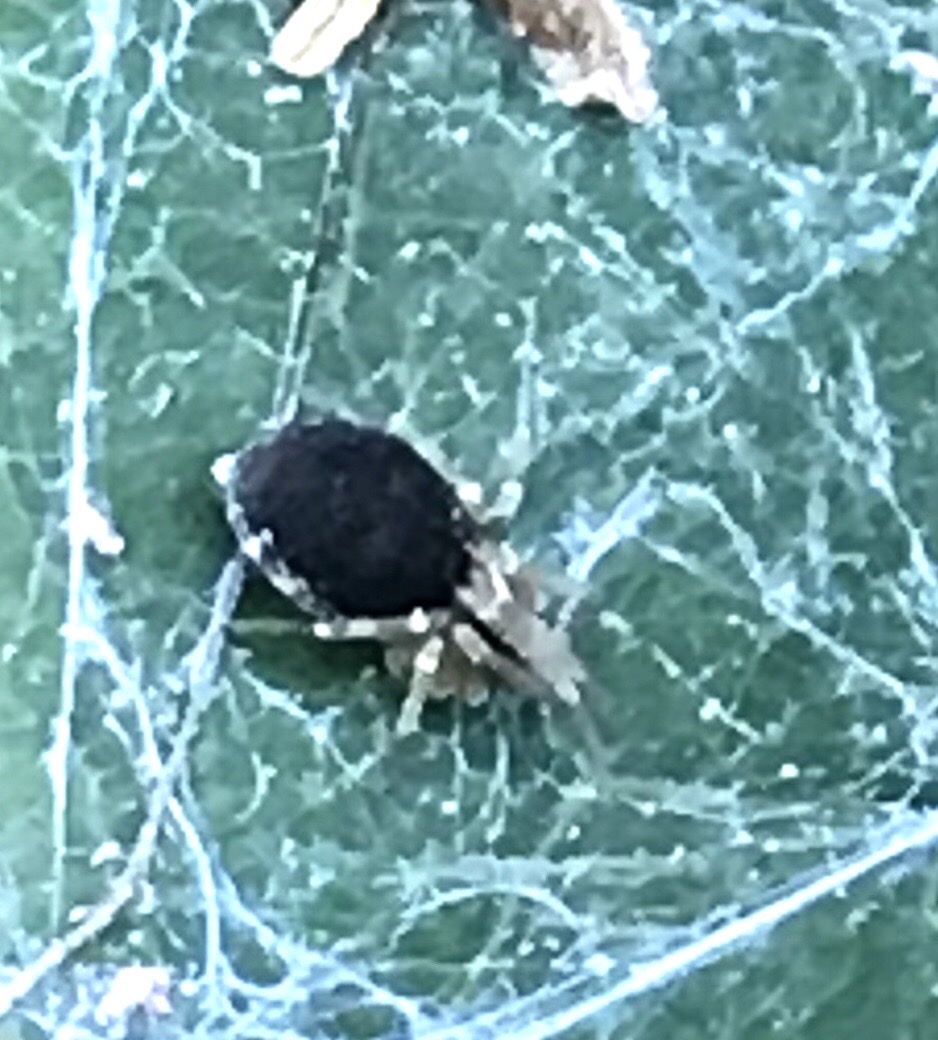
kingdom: Animalia
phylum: Arthropoda
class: Arachnida
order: Araneae
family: Dictynidae
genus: Emblyna
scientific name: Emblyna sublata
